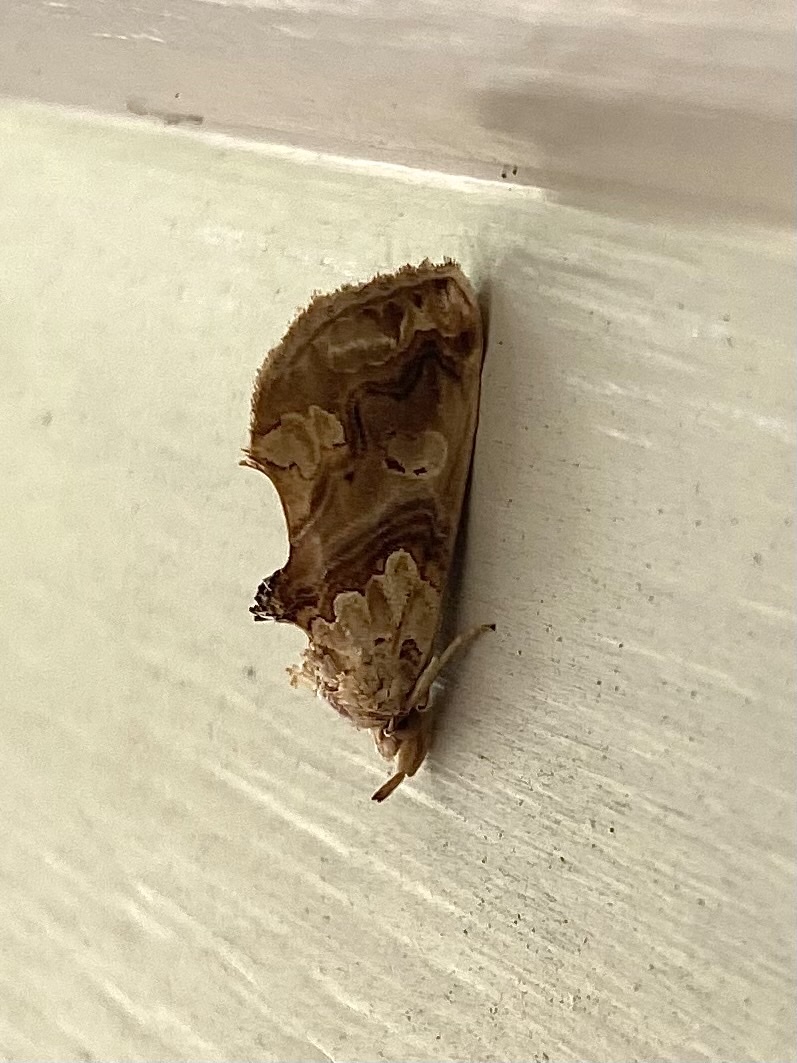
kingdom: Animalia
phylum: Arthropoda
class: Insecta
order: Lepidoptera
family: Erebidae
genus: Plusiodonta
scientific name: Plusiodonta compressipalpis
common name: Moonseed moth
